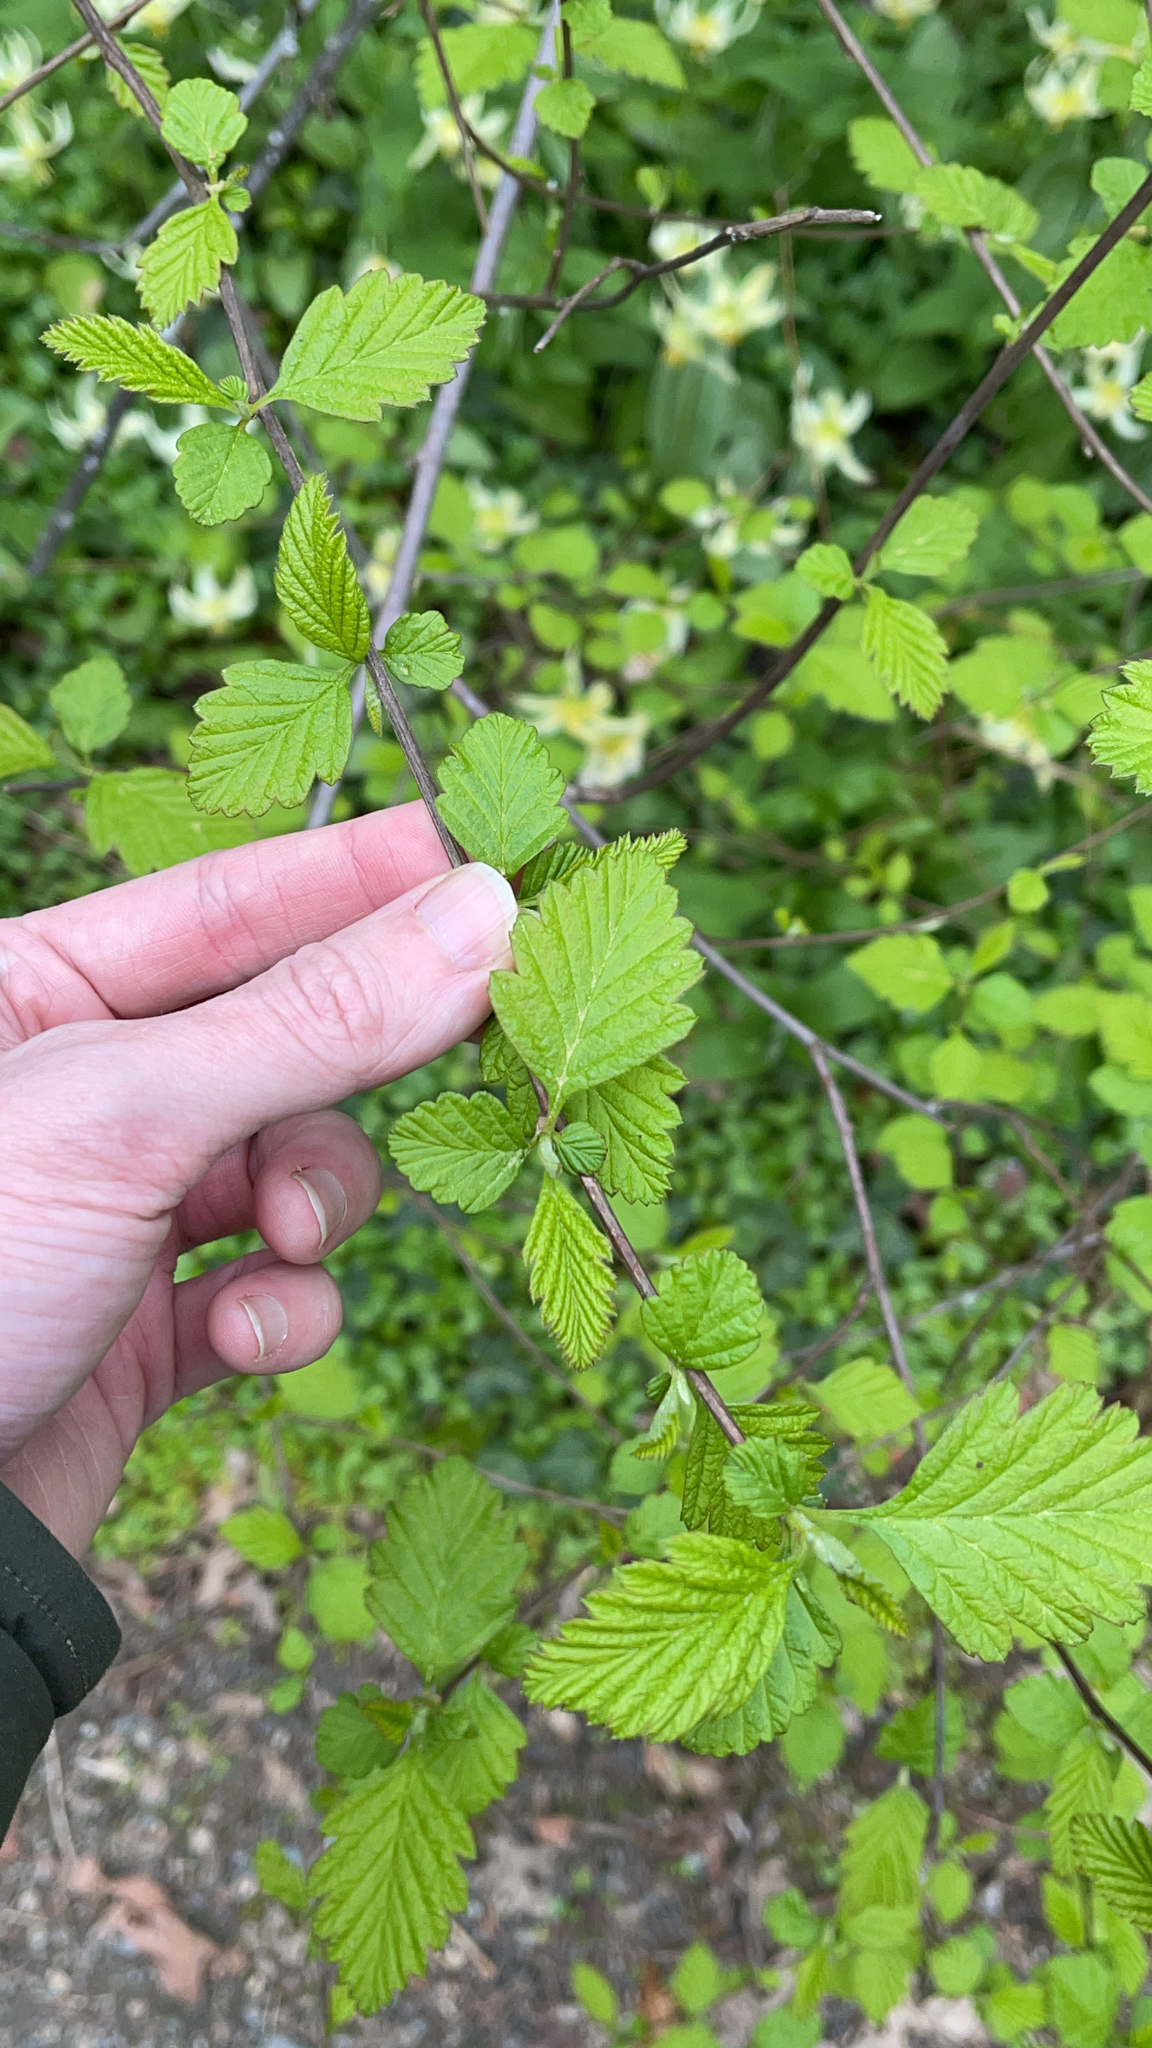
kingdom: Plantae
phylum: Tracheophyta
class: Magnoliopsida
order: Rosales
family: Rosaceae
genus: Holodiscus
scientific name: Holodiscus discolor
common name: Oceanspray
